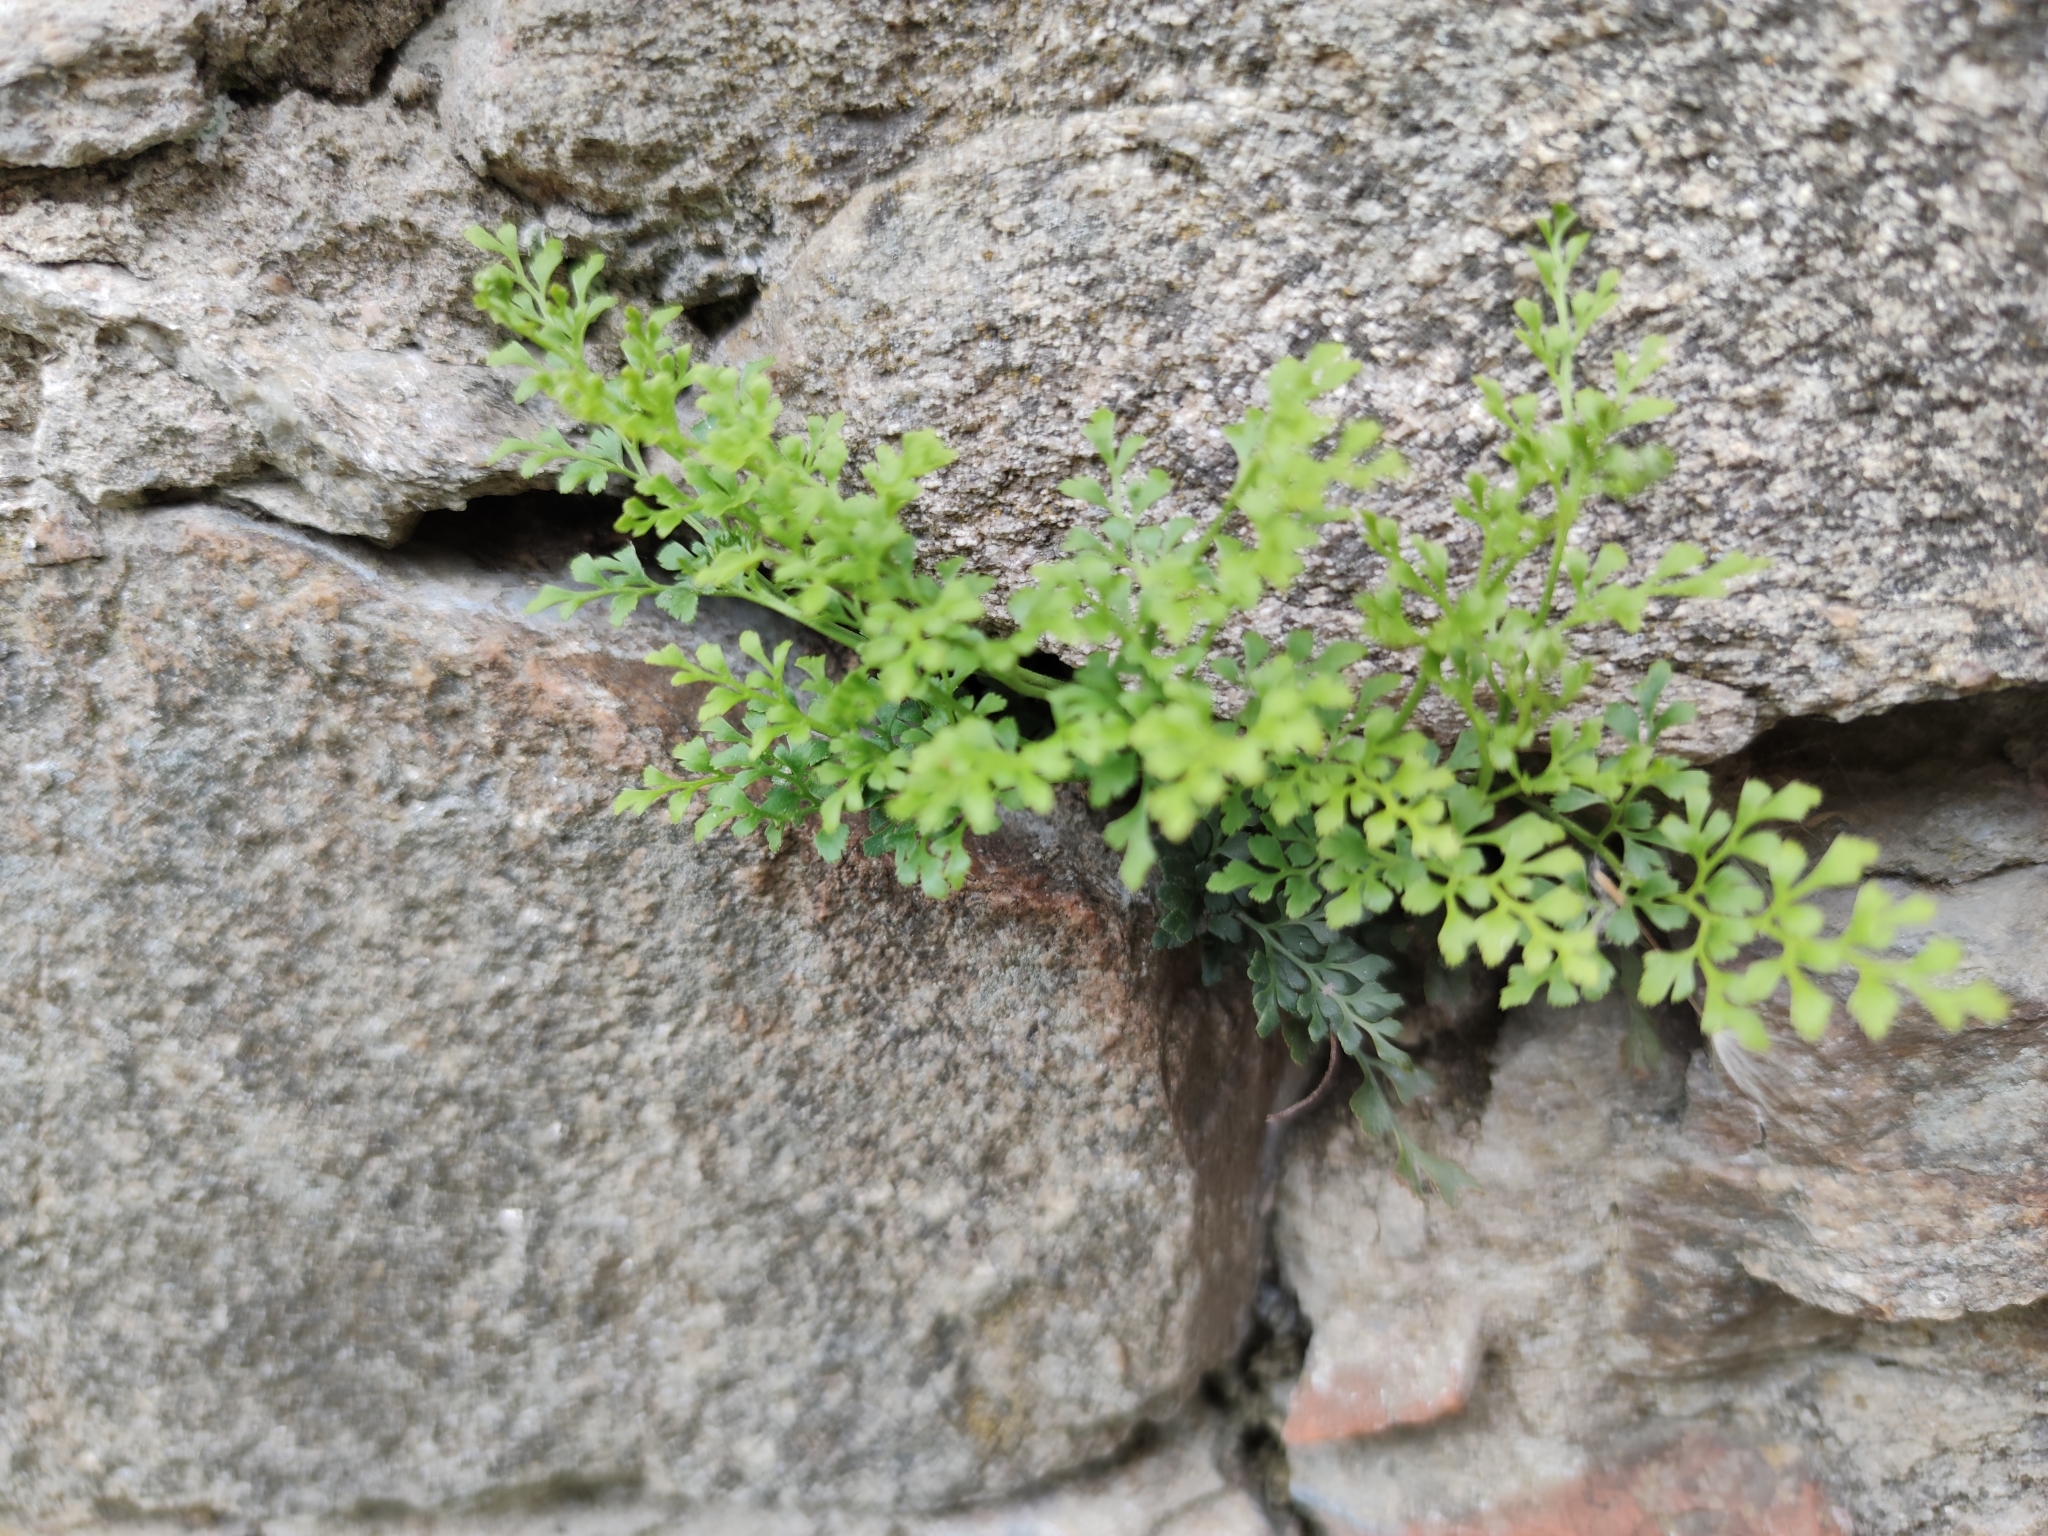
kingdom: Plantae
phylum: Tracheophyta
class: Polypodiopsida
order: Polypodiales
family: Aspleniaceae
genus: Asplenium
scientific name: Asplenium ruta-muraria
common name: Wall-rue
